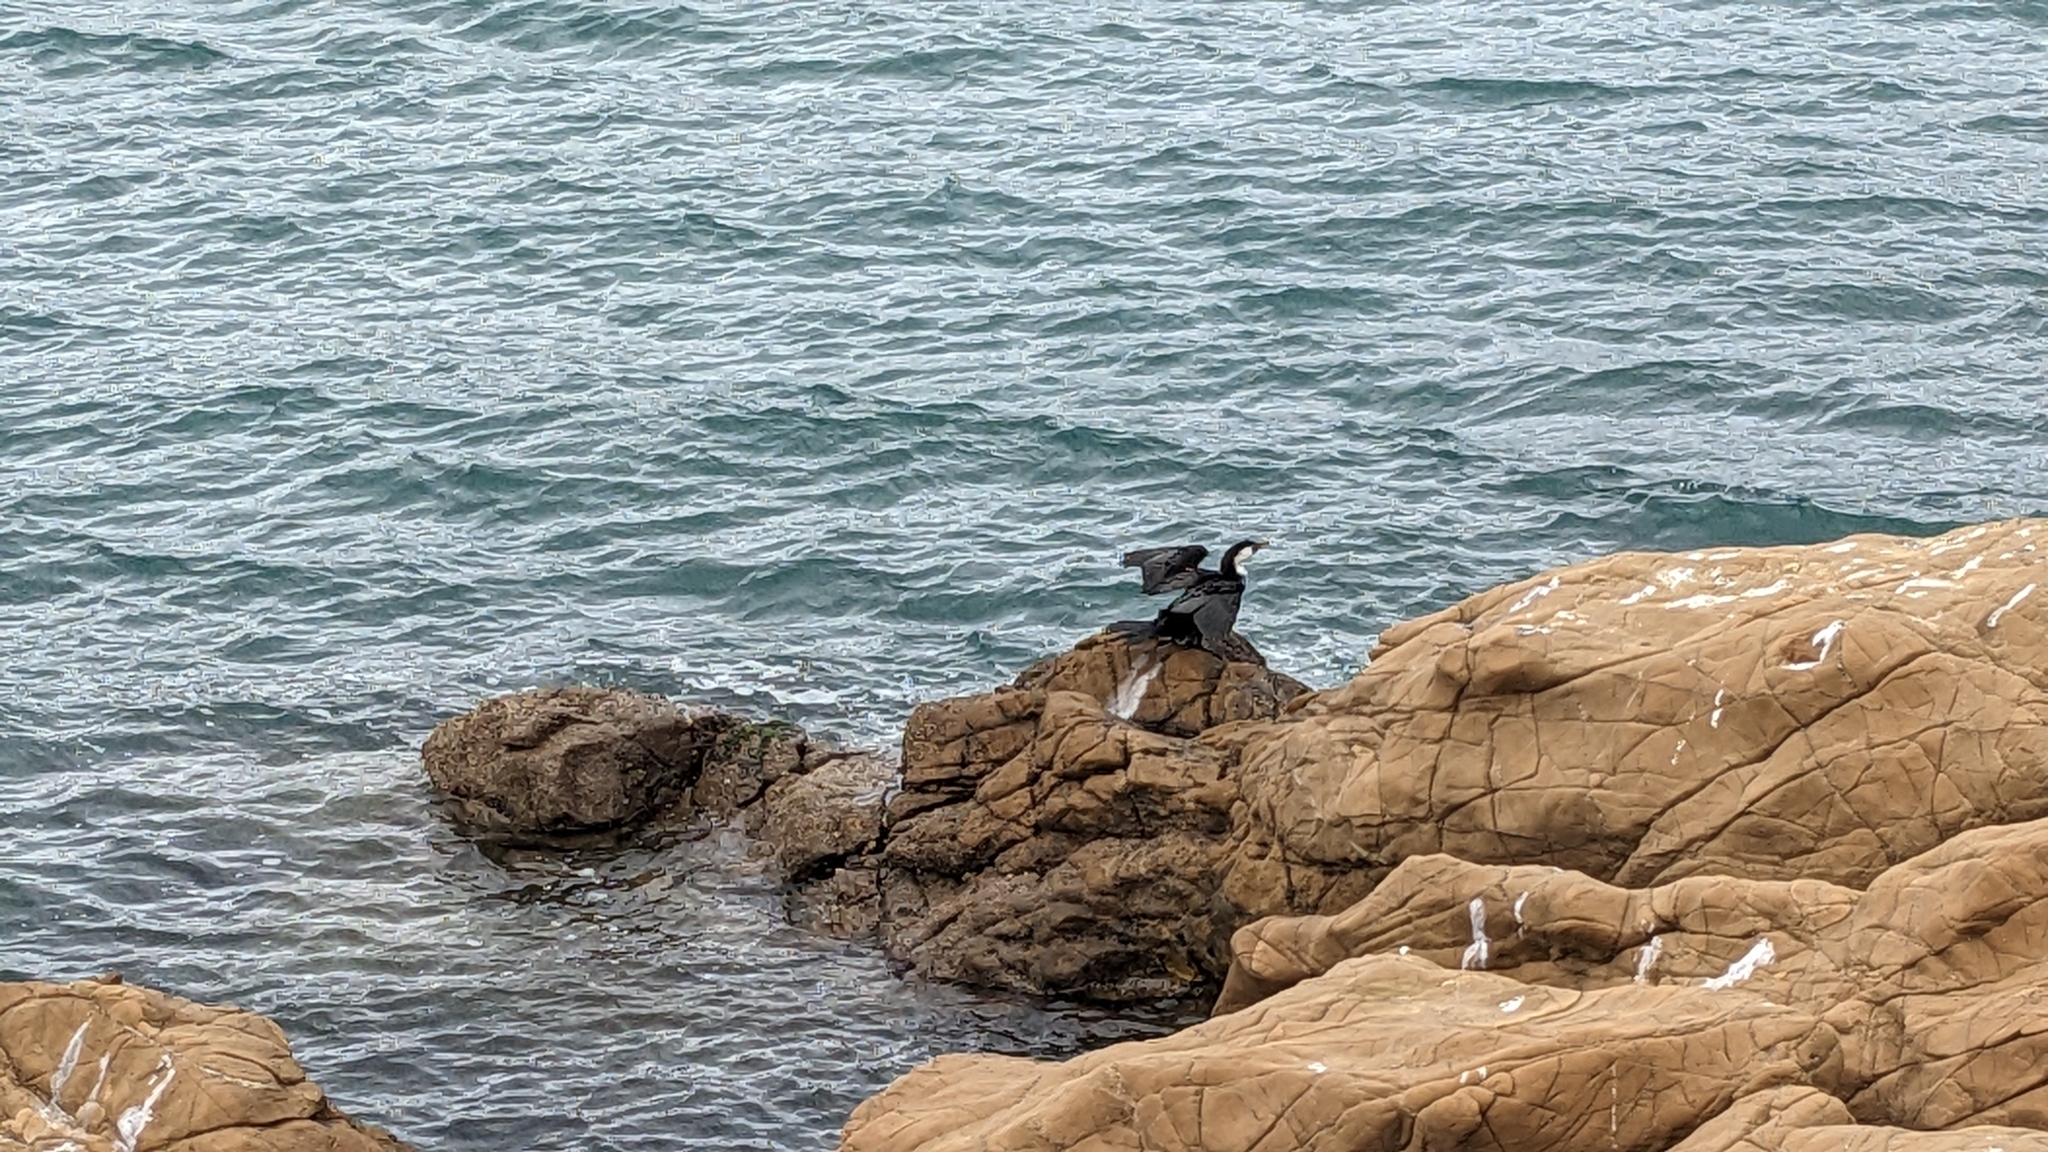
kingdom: Animalia
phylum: Chordata
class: Aves
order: Suliformes
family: Phalacrocoracidae
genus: Microcarbo
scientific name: Microcarbo melanoleucos
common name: Little pied cormorant
